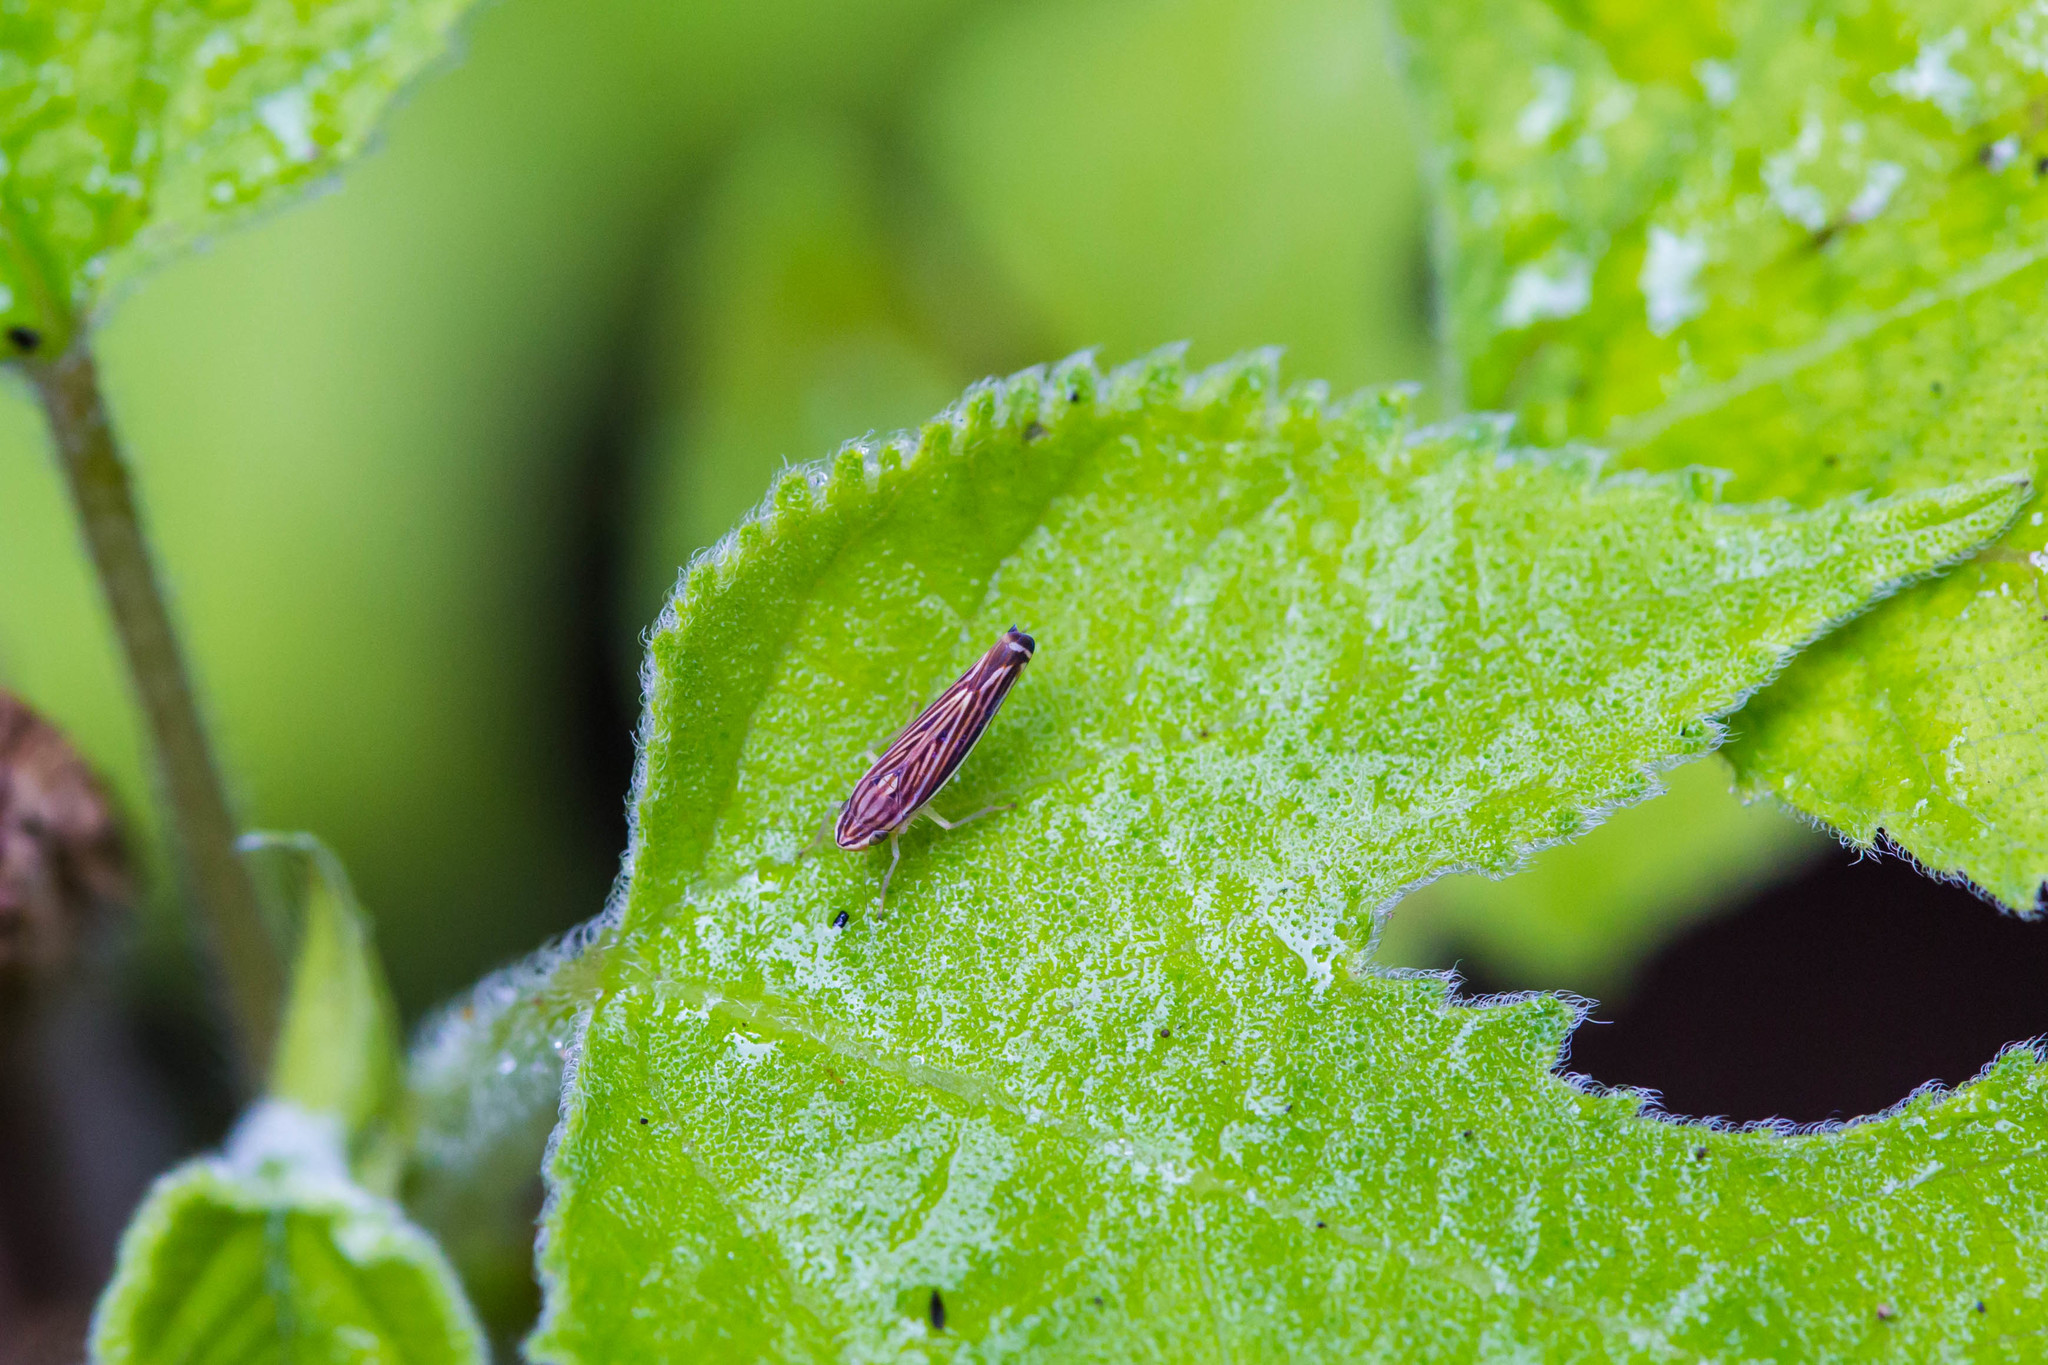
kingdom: Animalia
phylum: Arthropoda
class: Insecta
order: Hemiptera
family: Cicadellidae
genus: Sibovia
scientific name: Sibovia occatoria
